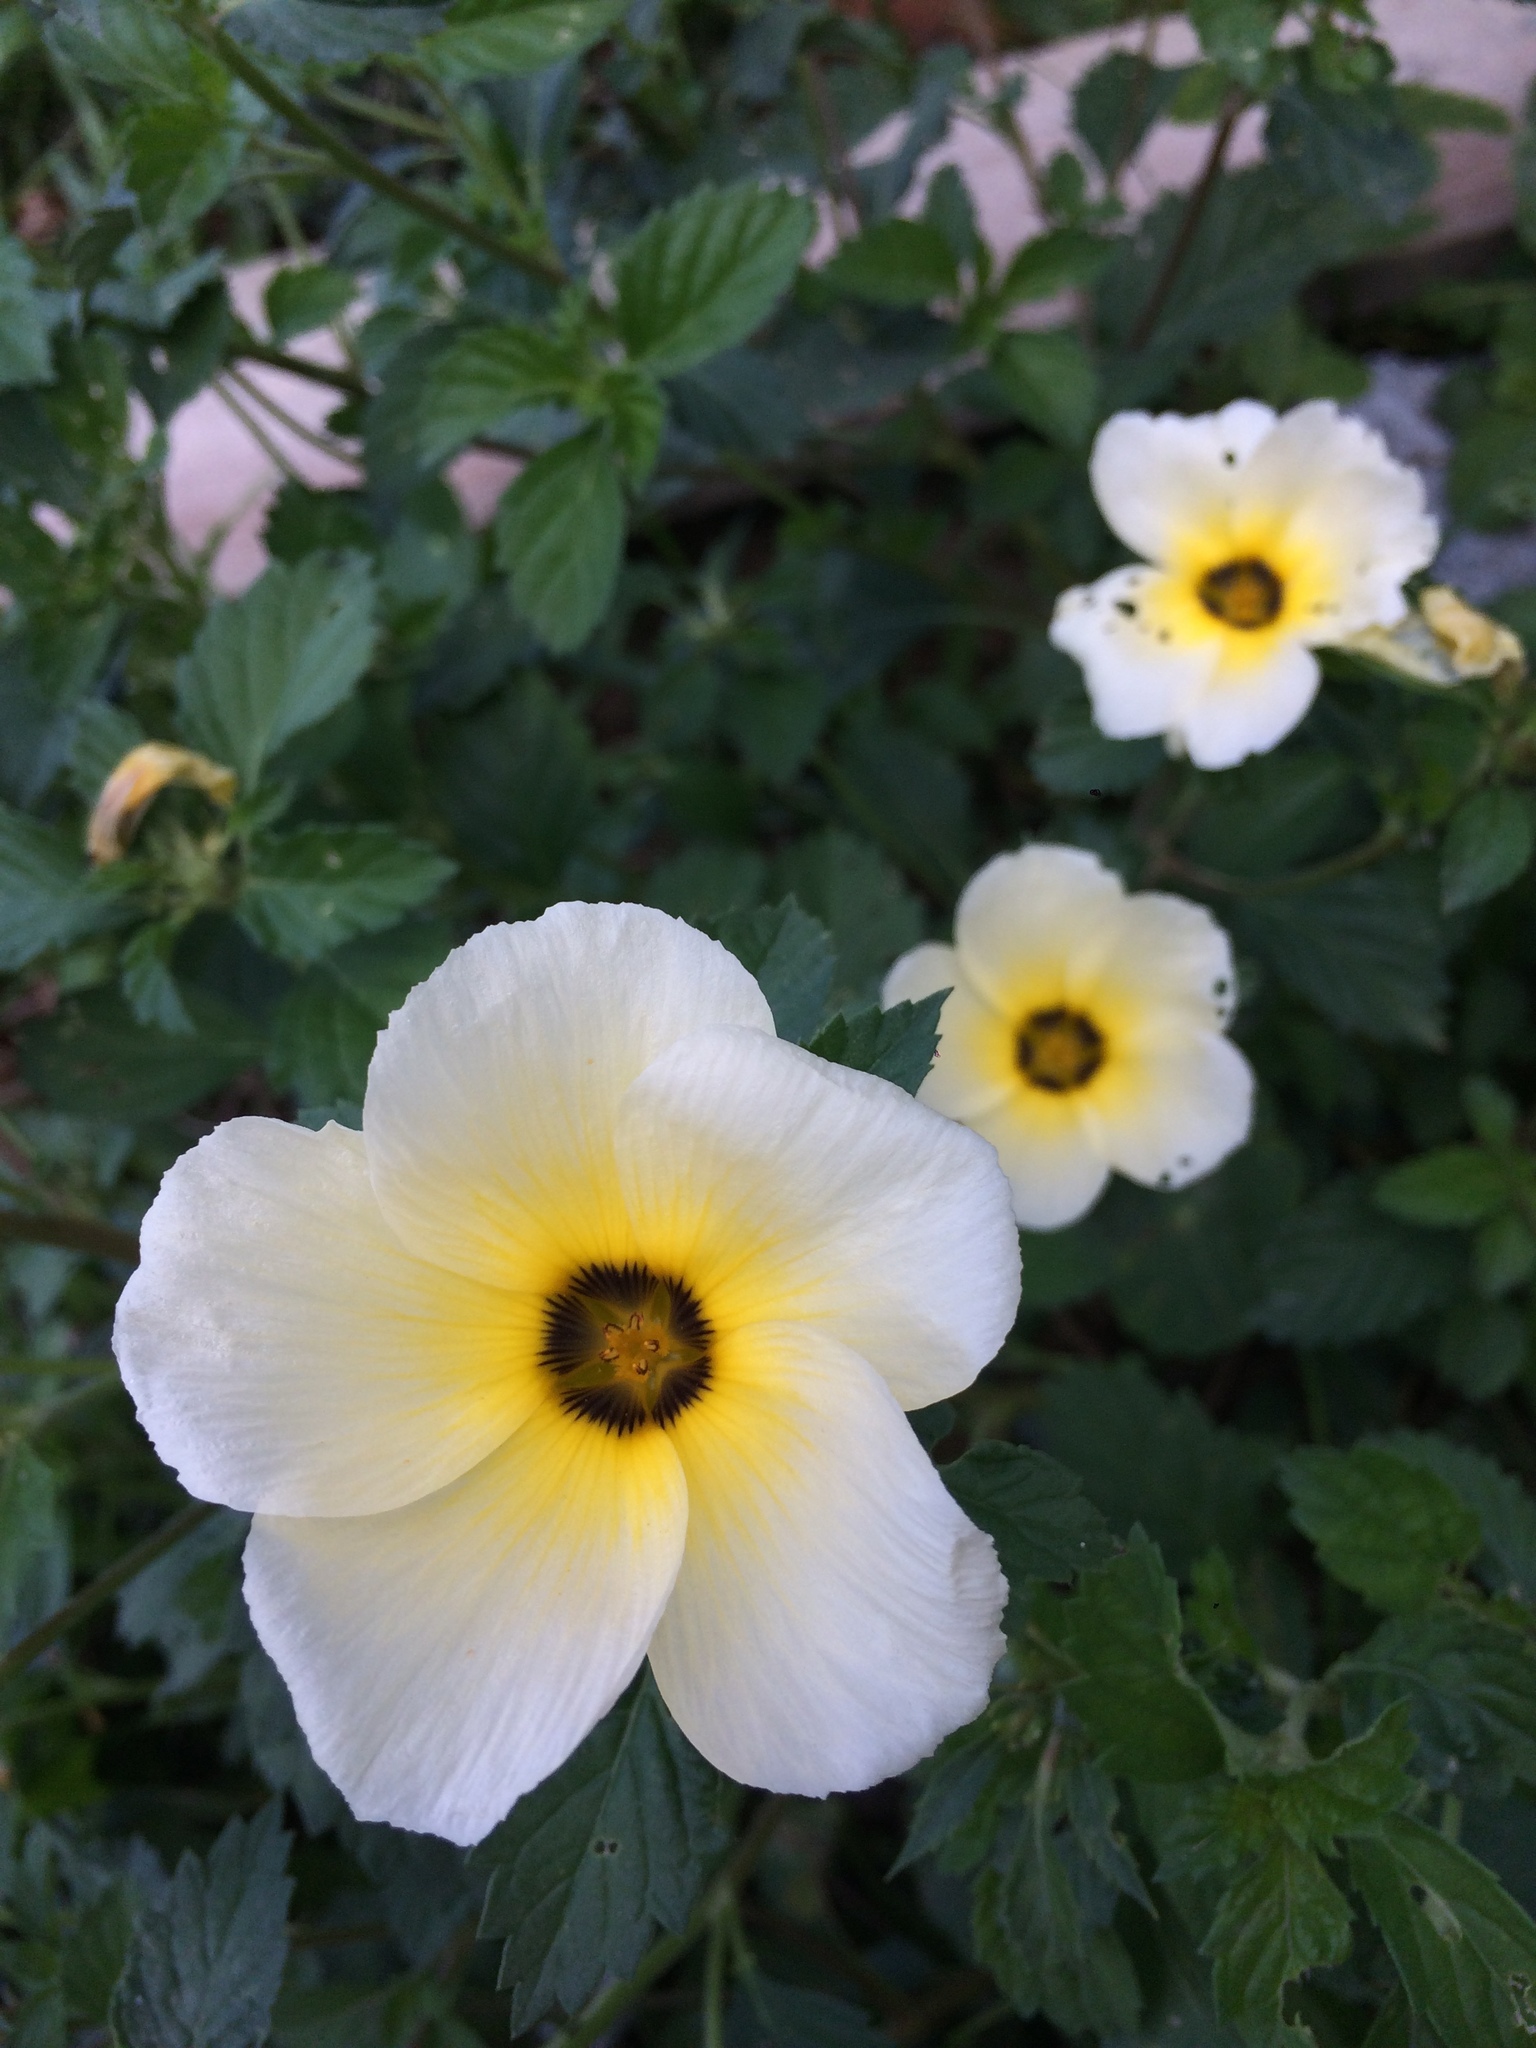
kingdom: Plantae
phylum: Tracheophyta
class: Magnoliopsida
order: Malpighiales
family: Turneraceae
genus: Turnera
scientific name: Turnera subulata
